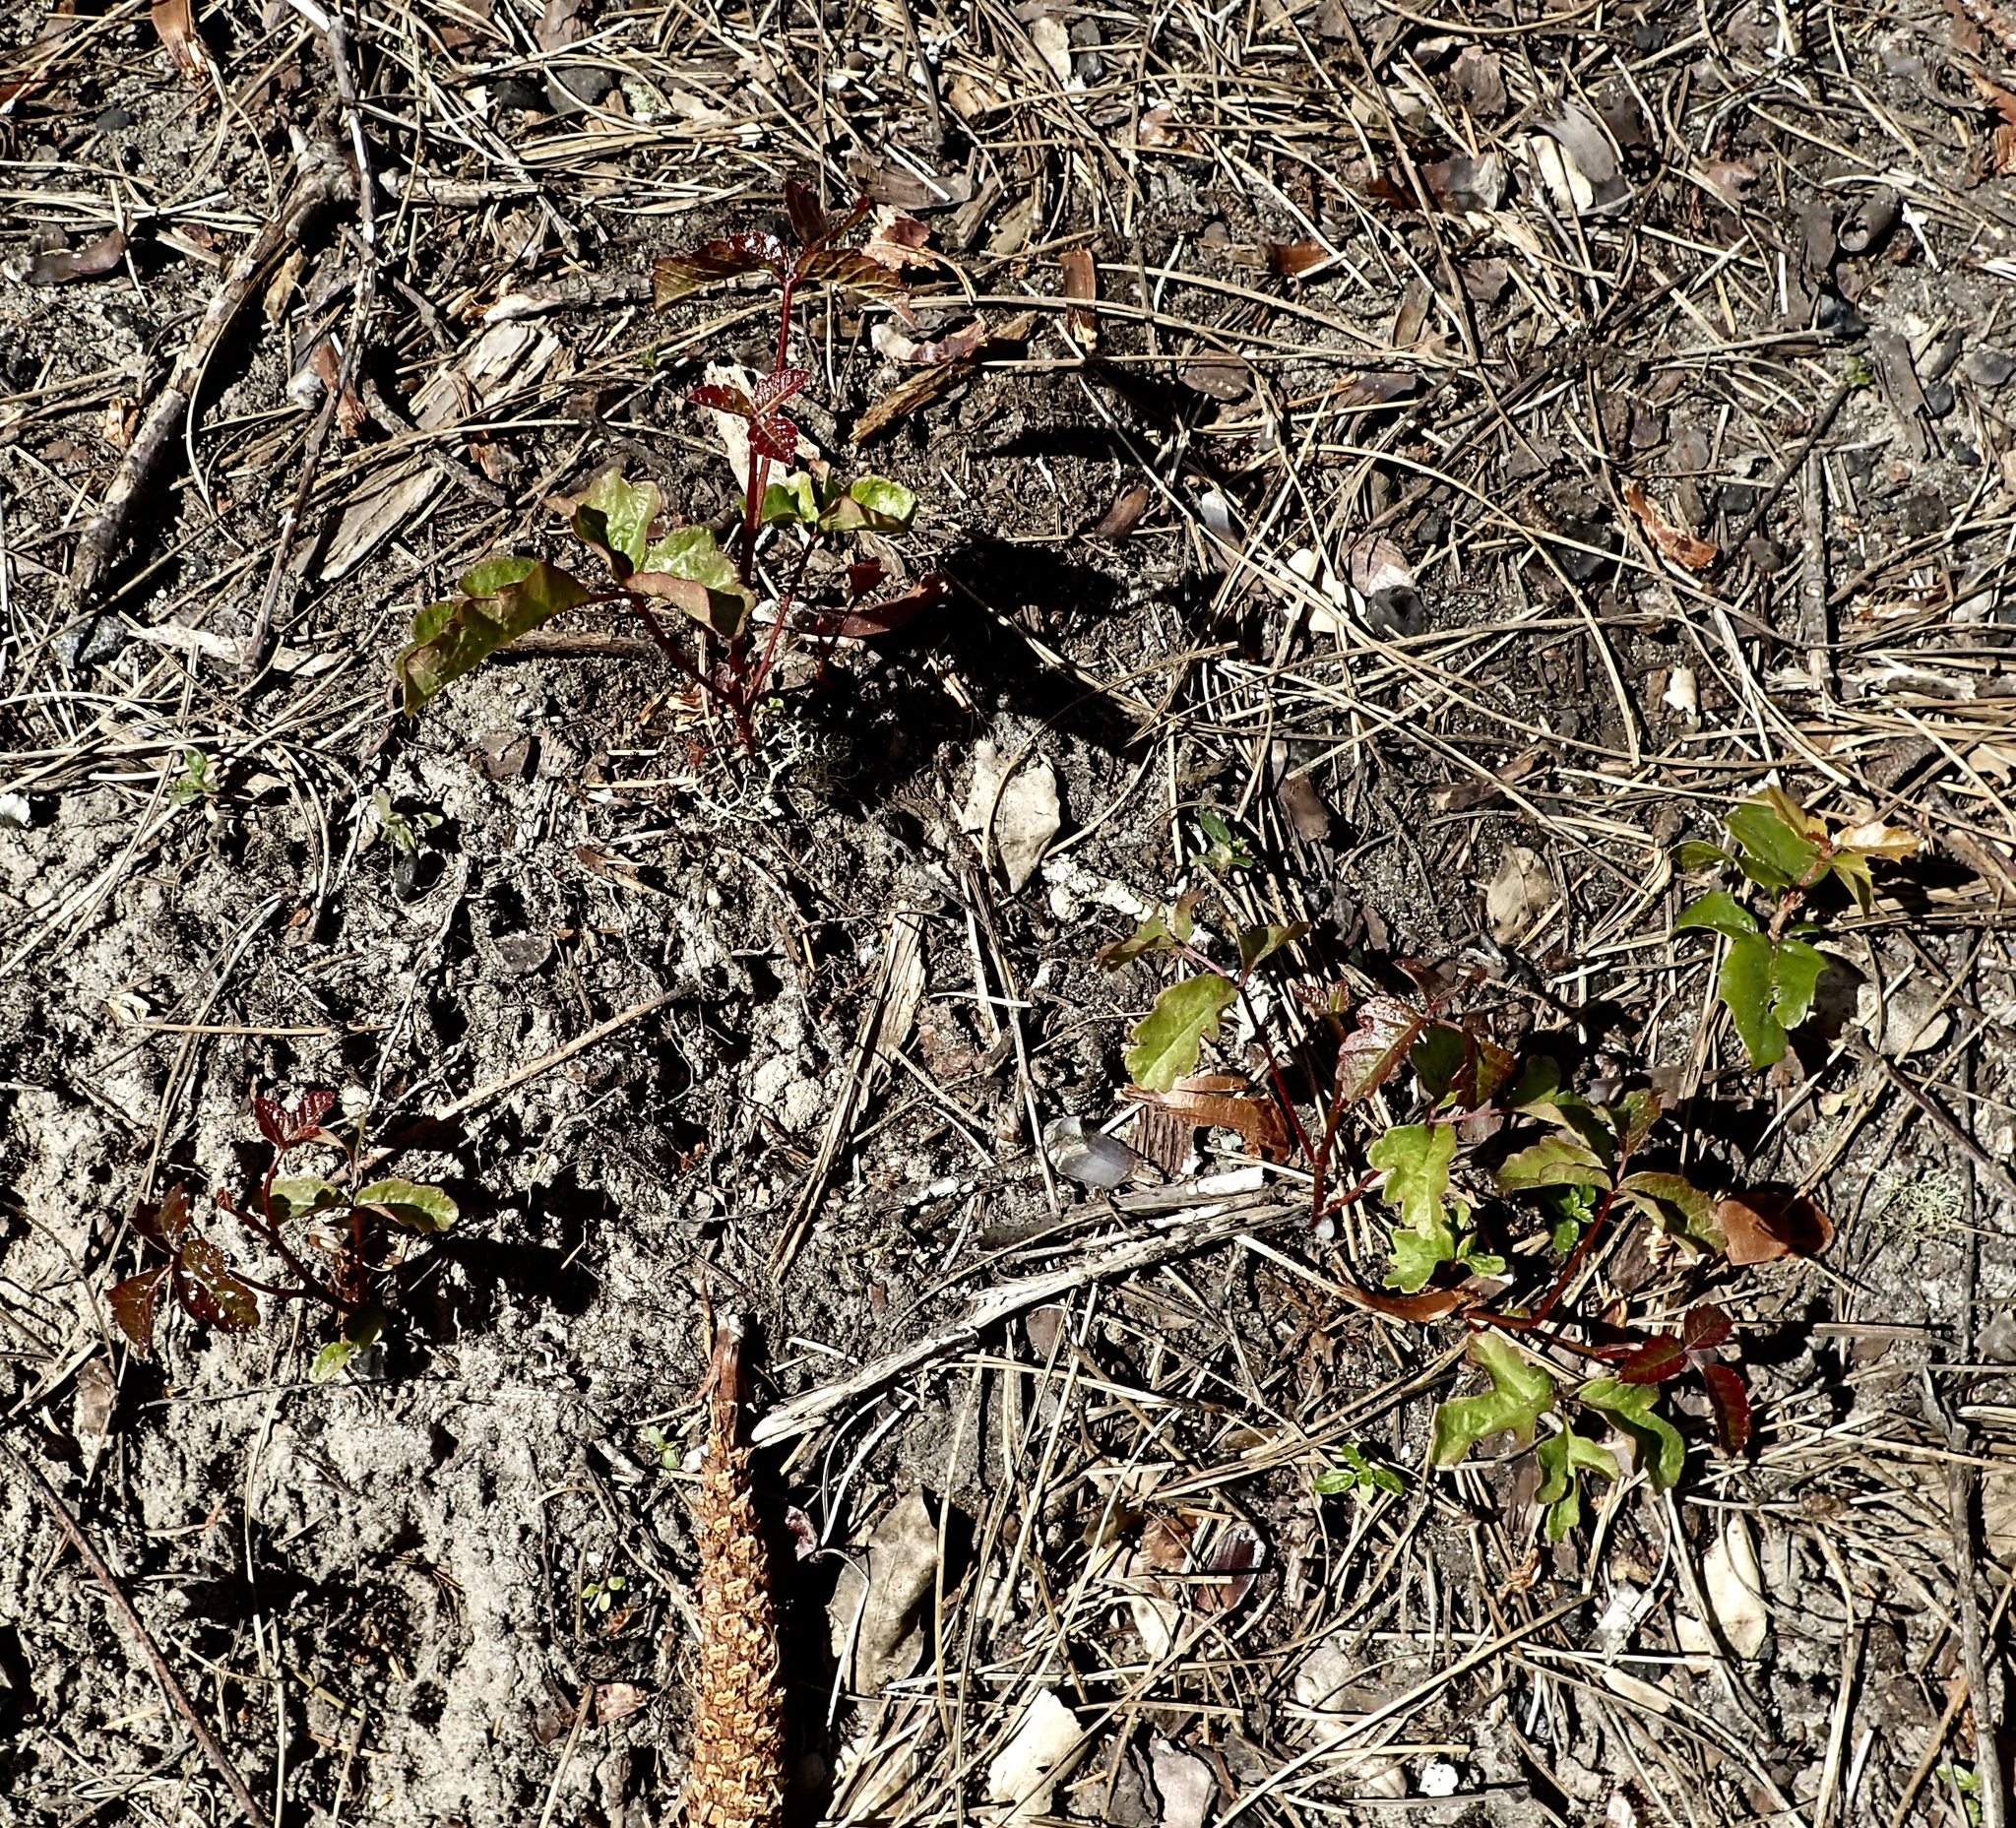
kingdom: Plantae
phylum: Tracheophyta
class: Magnoliopsida
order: Sapindales
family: Anacardiaceae
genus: Toxicodendron
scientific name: Toxicodendron diversilobum
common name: Pacific poison-oak
